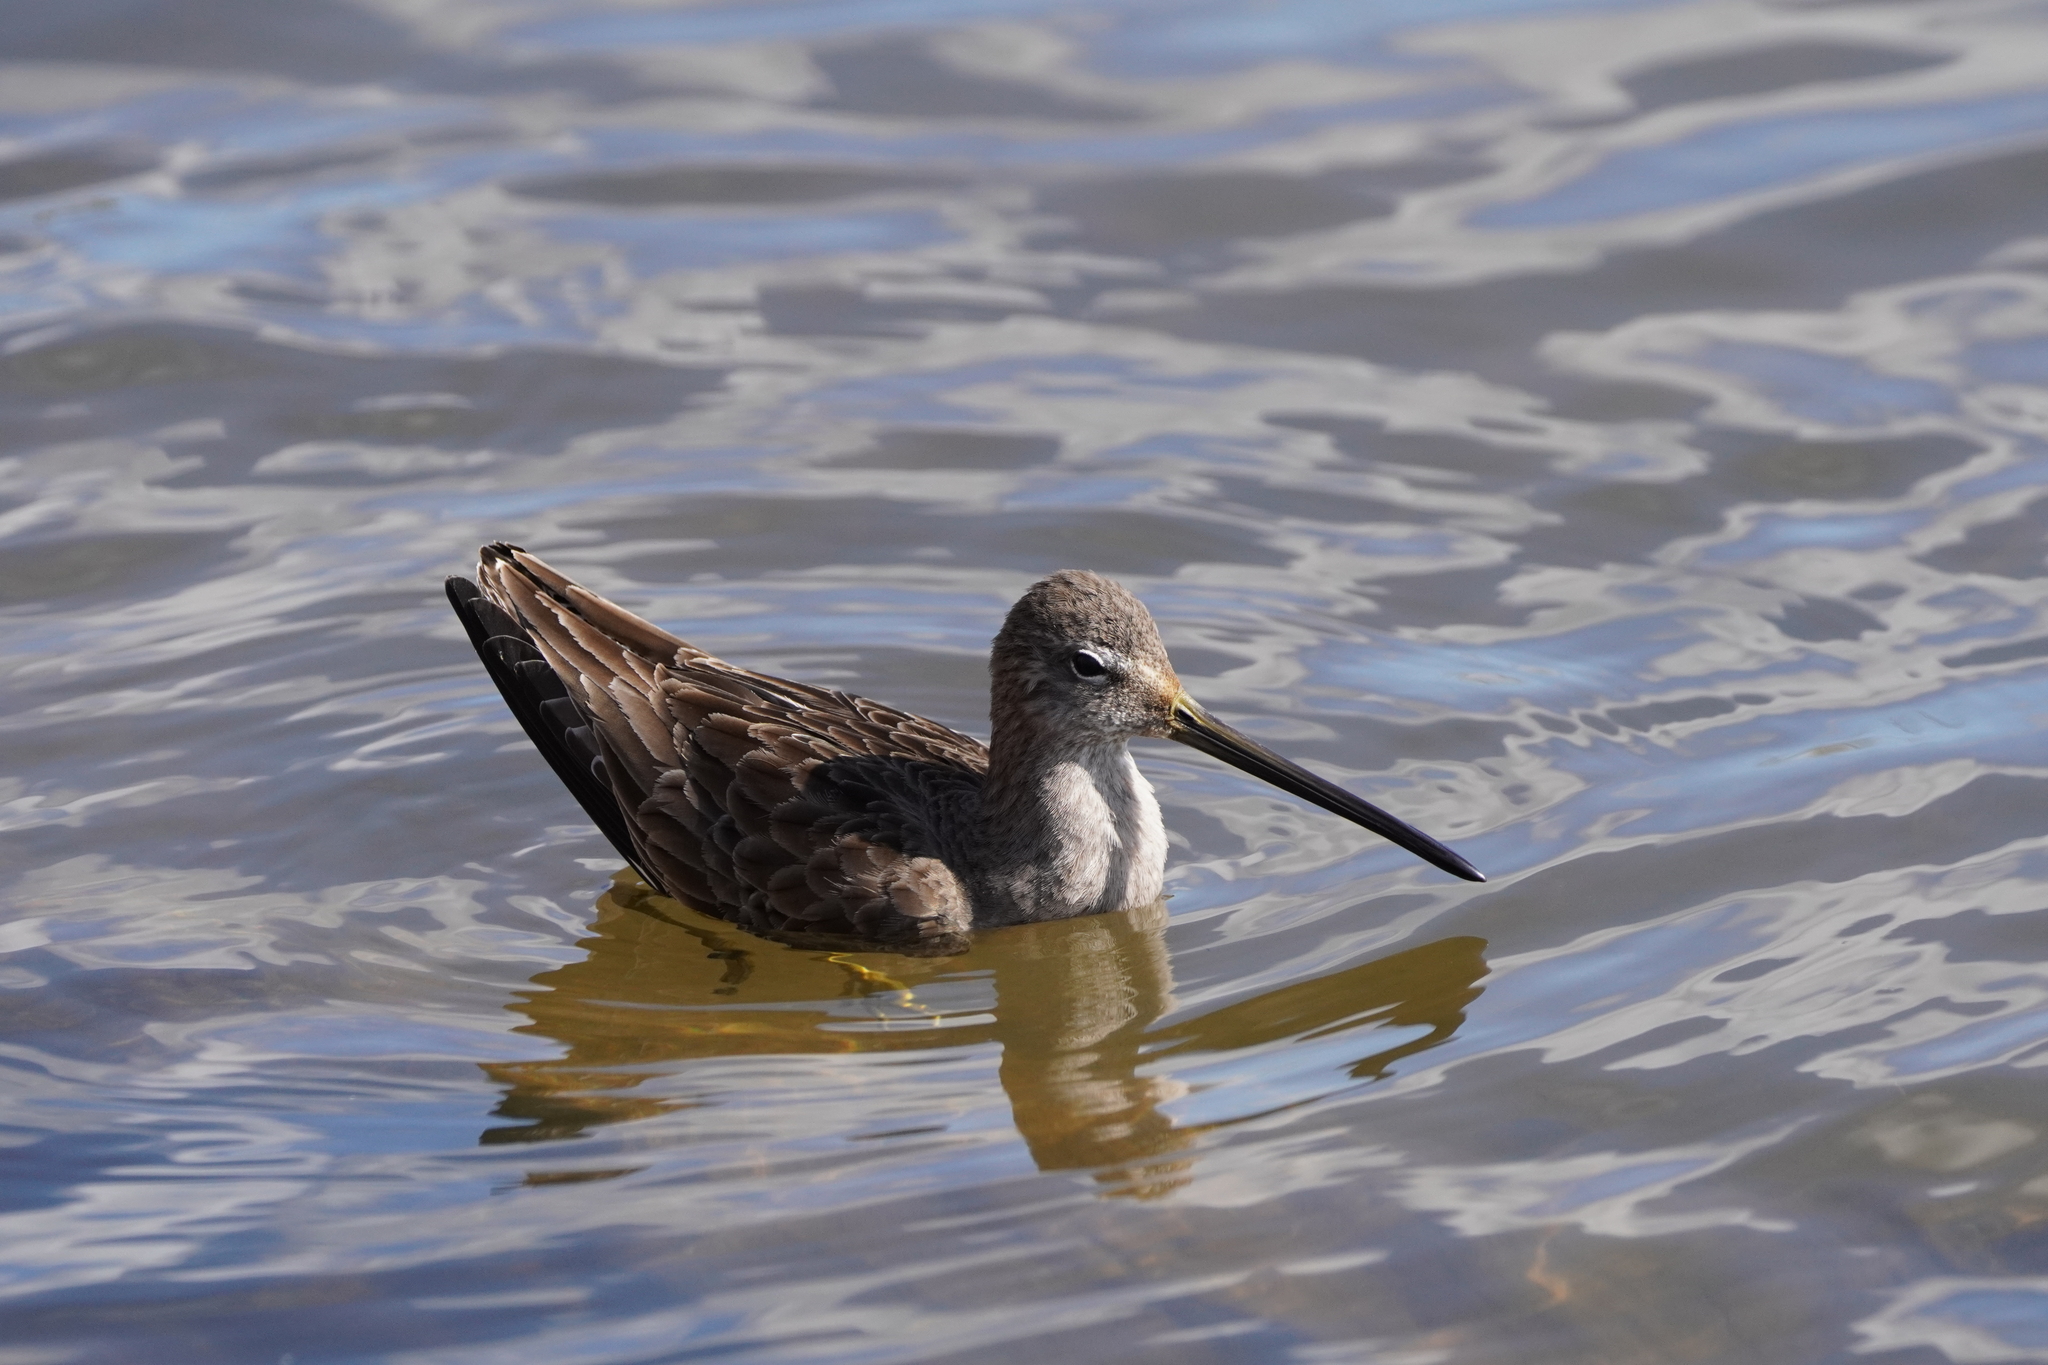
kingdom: Animalia
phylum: Chordata
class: Aves
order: Charadriiformes
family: Scolopacidae
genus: Limnodromus
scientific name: Limnodromus scolopaceus
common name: Long-billed dowitcher
